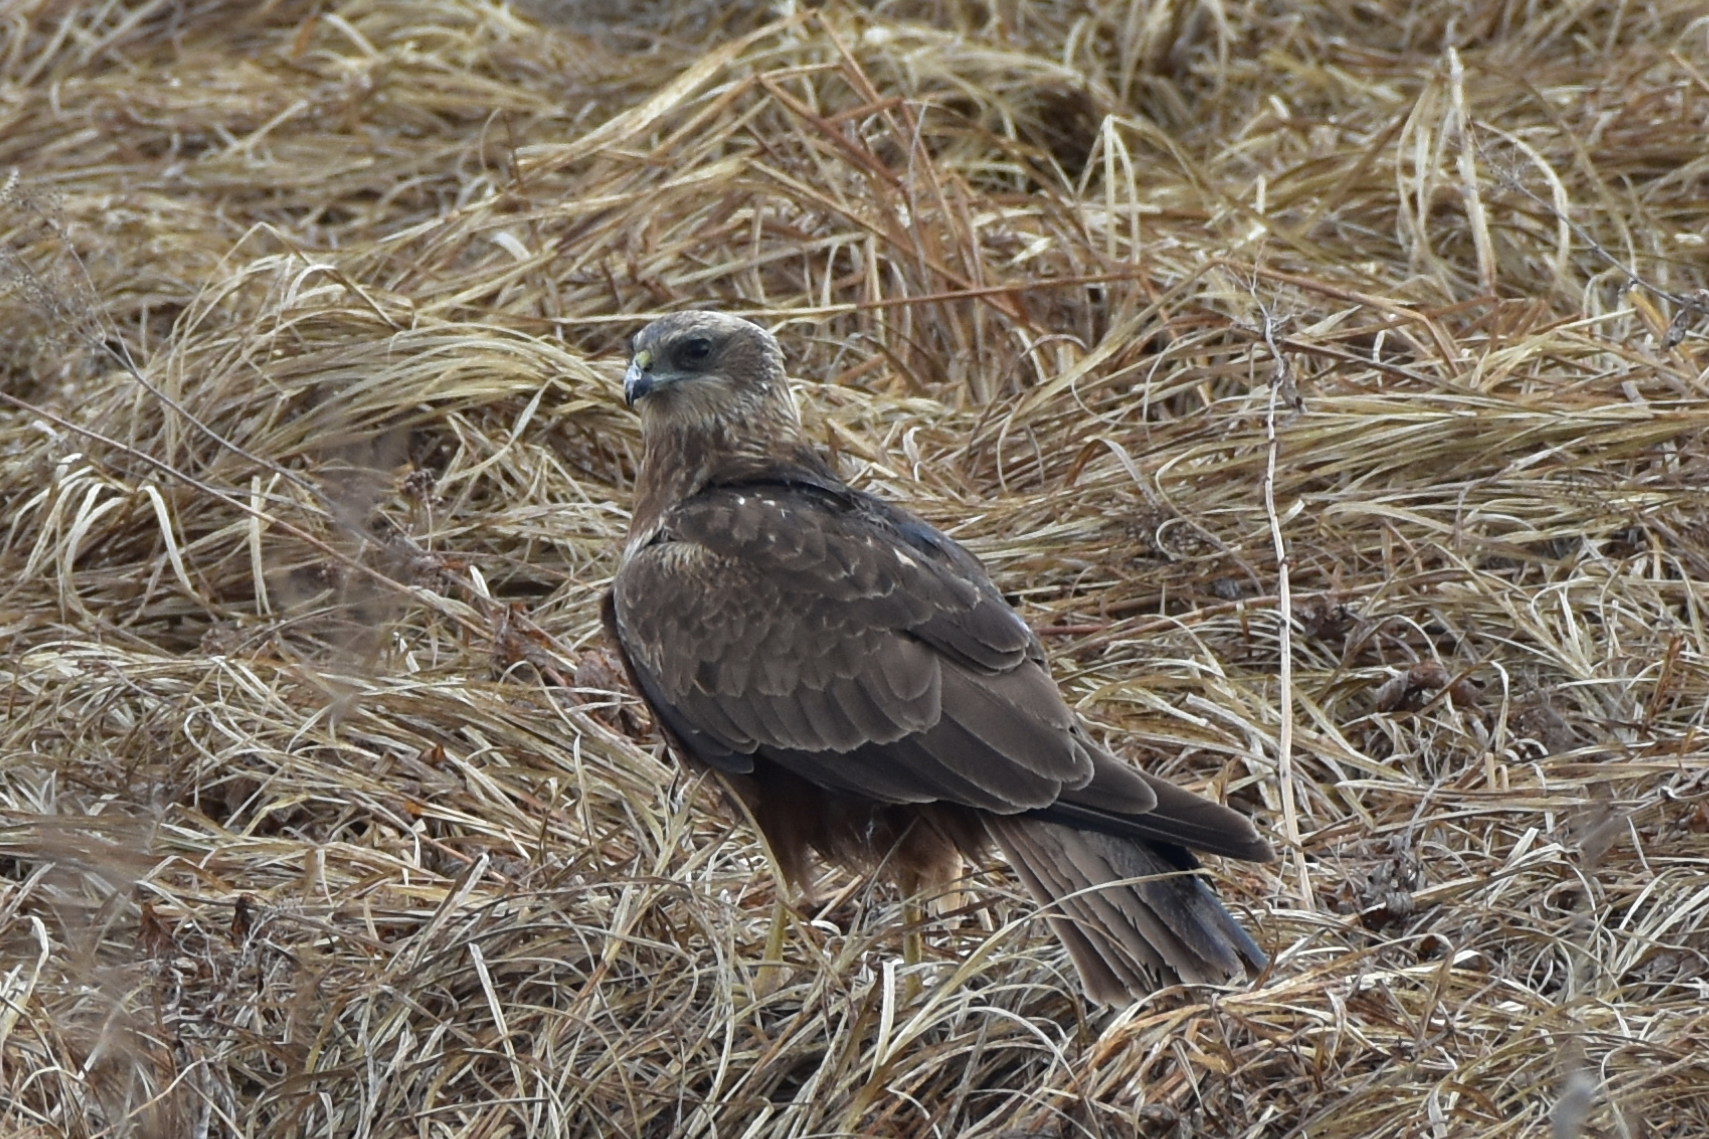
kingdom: Animalia
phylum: Chordata
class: Aves
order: Accipitriformes
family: Accipitridae
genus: Circus
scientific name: Circus aeruginosus
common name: Western marsh harrier
